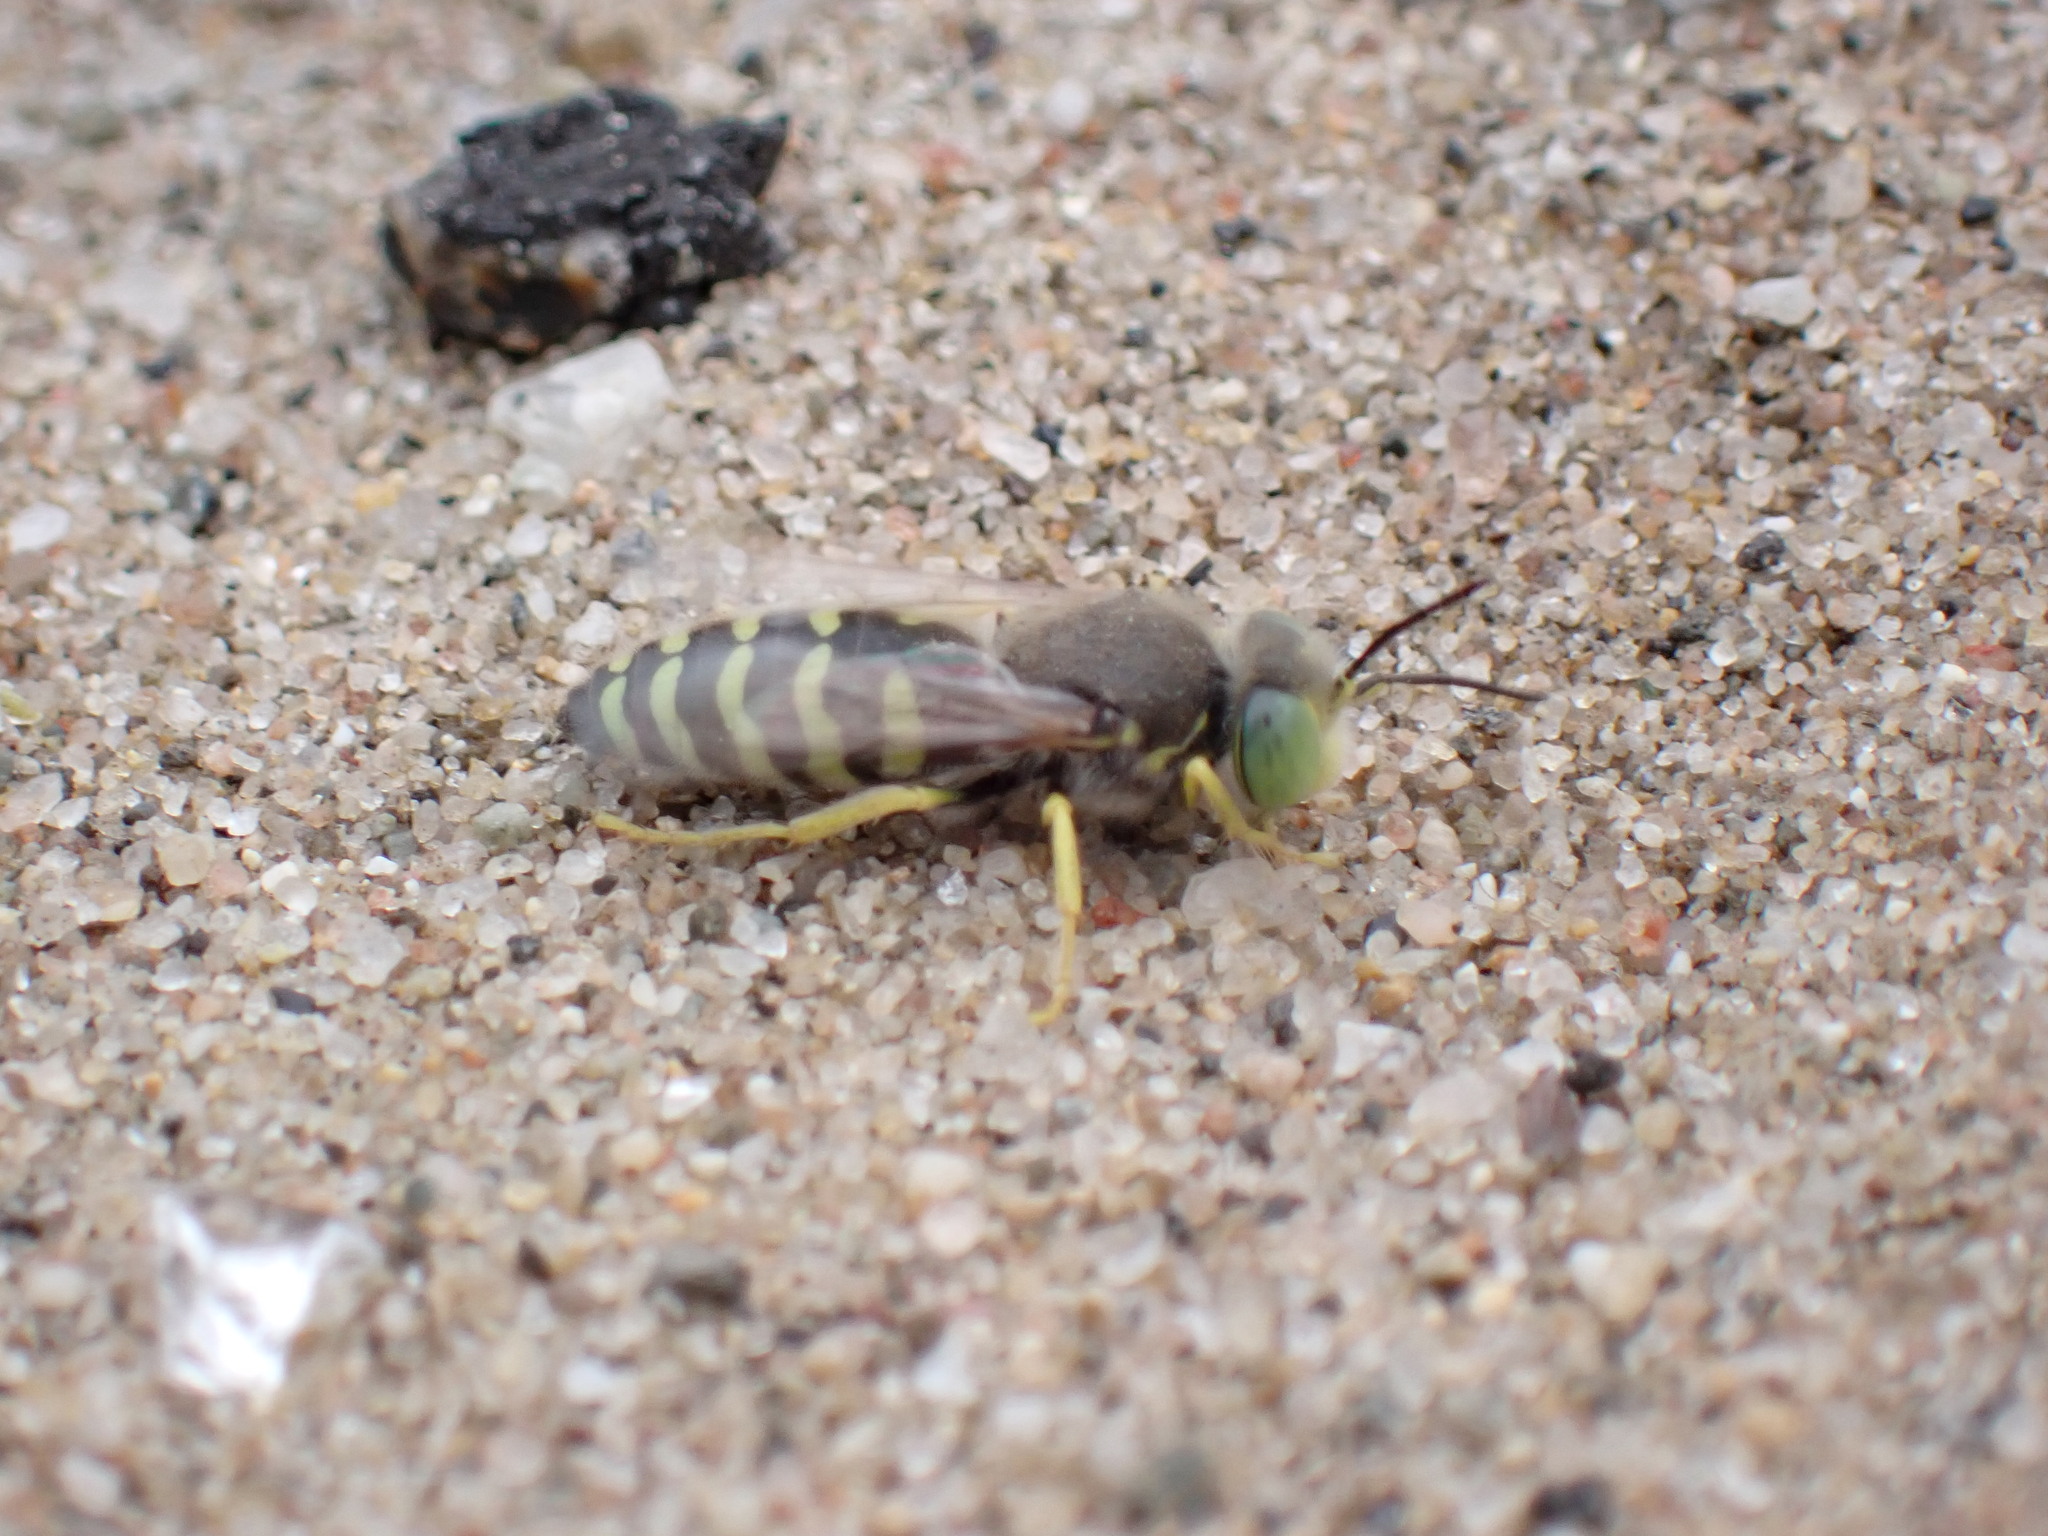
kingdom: Animalia
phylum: Arthropoda
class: Insecta
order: Hymenoptera
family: Crabronidae
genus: Bembix
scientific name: Bembix americana
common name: American sand wasp
